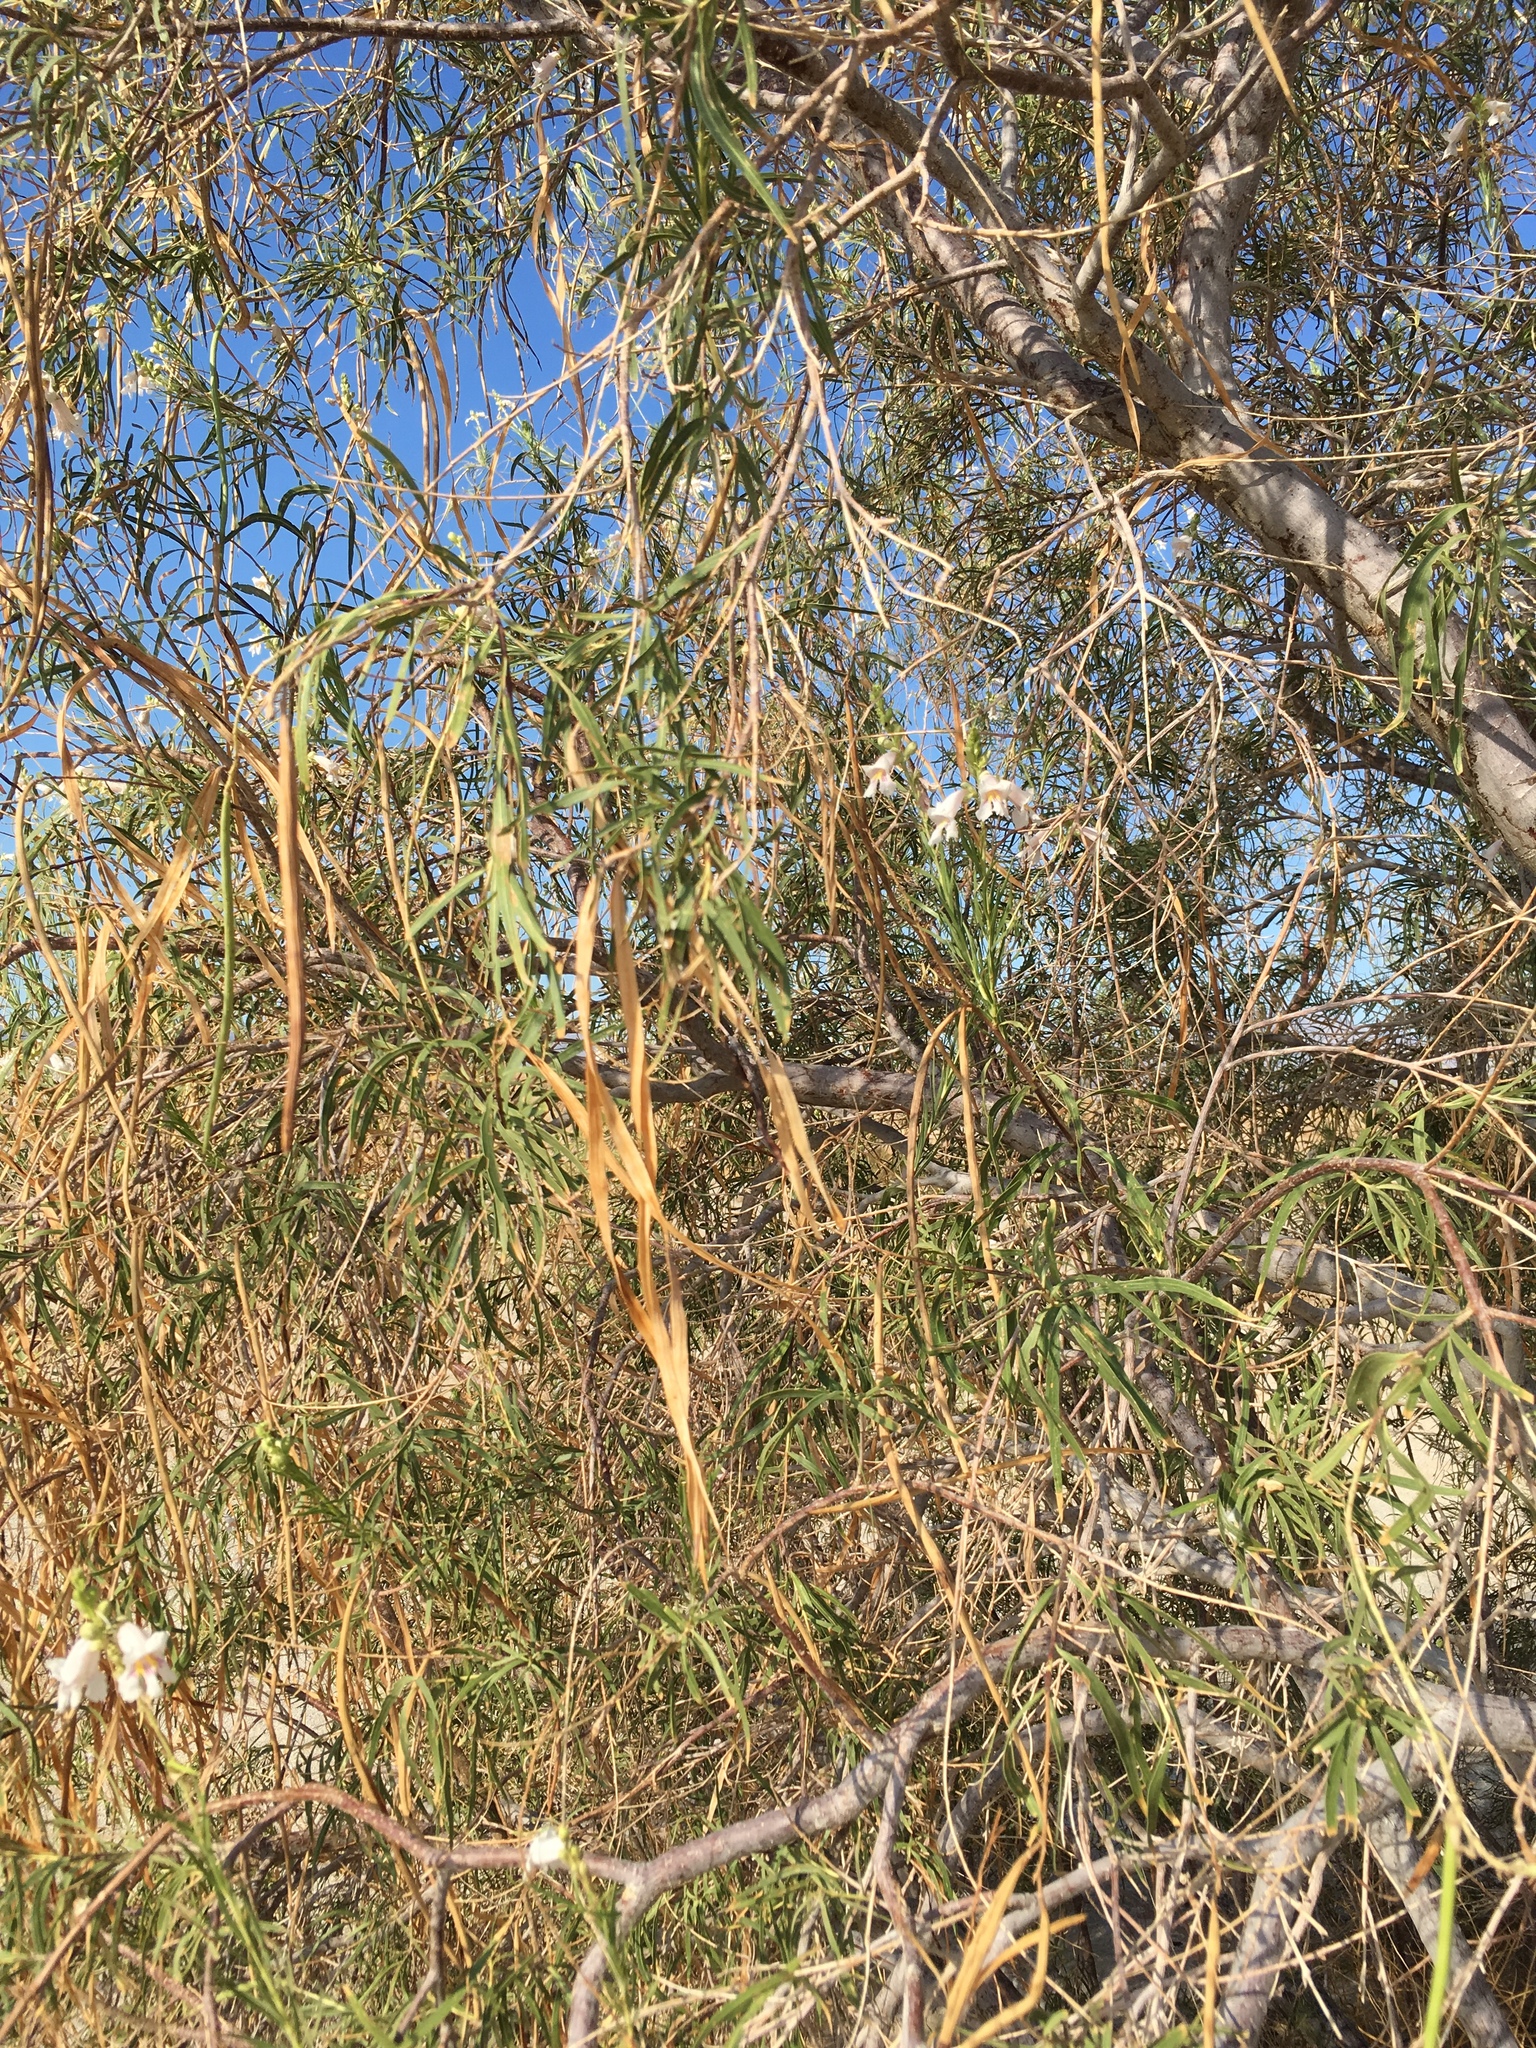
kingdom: Plantae
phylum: Tracheophyta
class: Magnoliopsida
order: Lamiales
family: Bignoniaceae
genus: Chilopsis
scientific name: Chilopsis linearis
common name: Desert-willow
